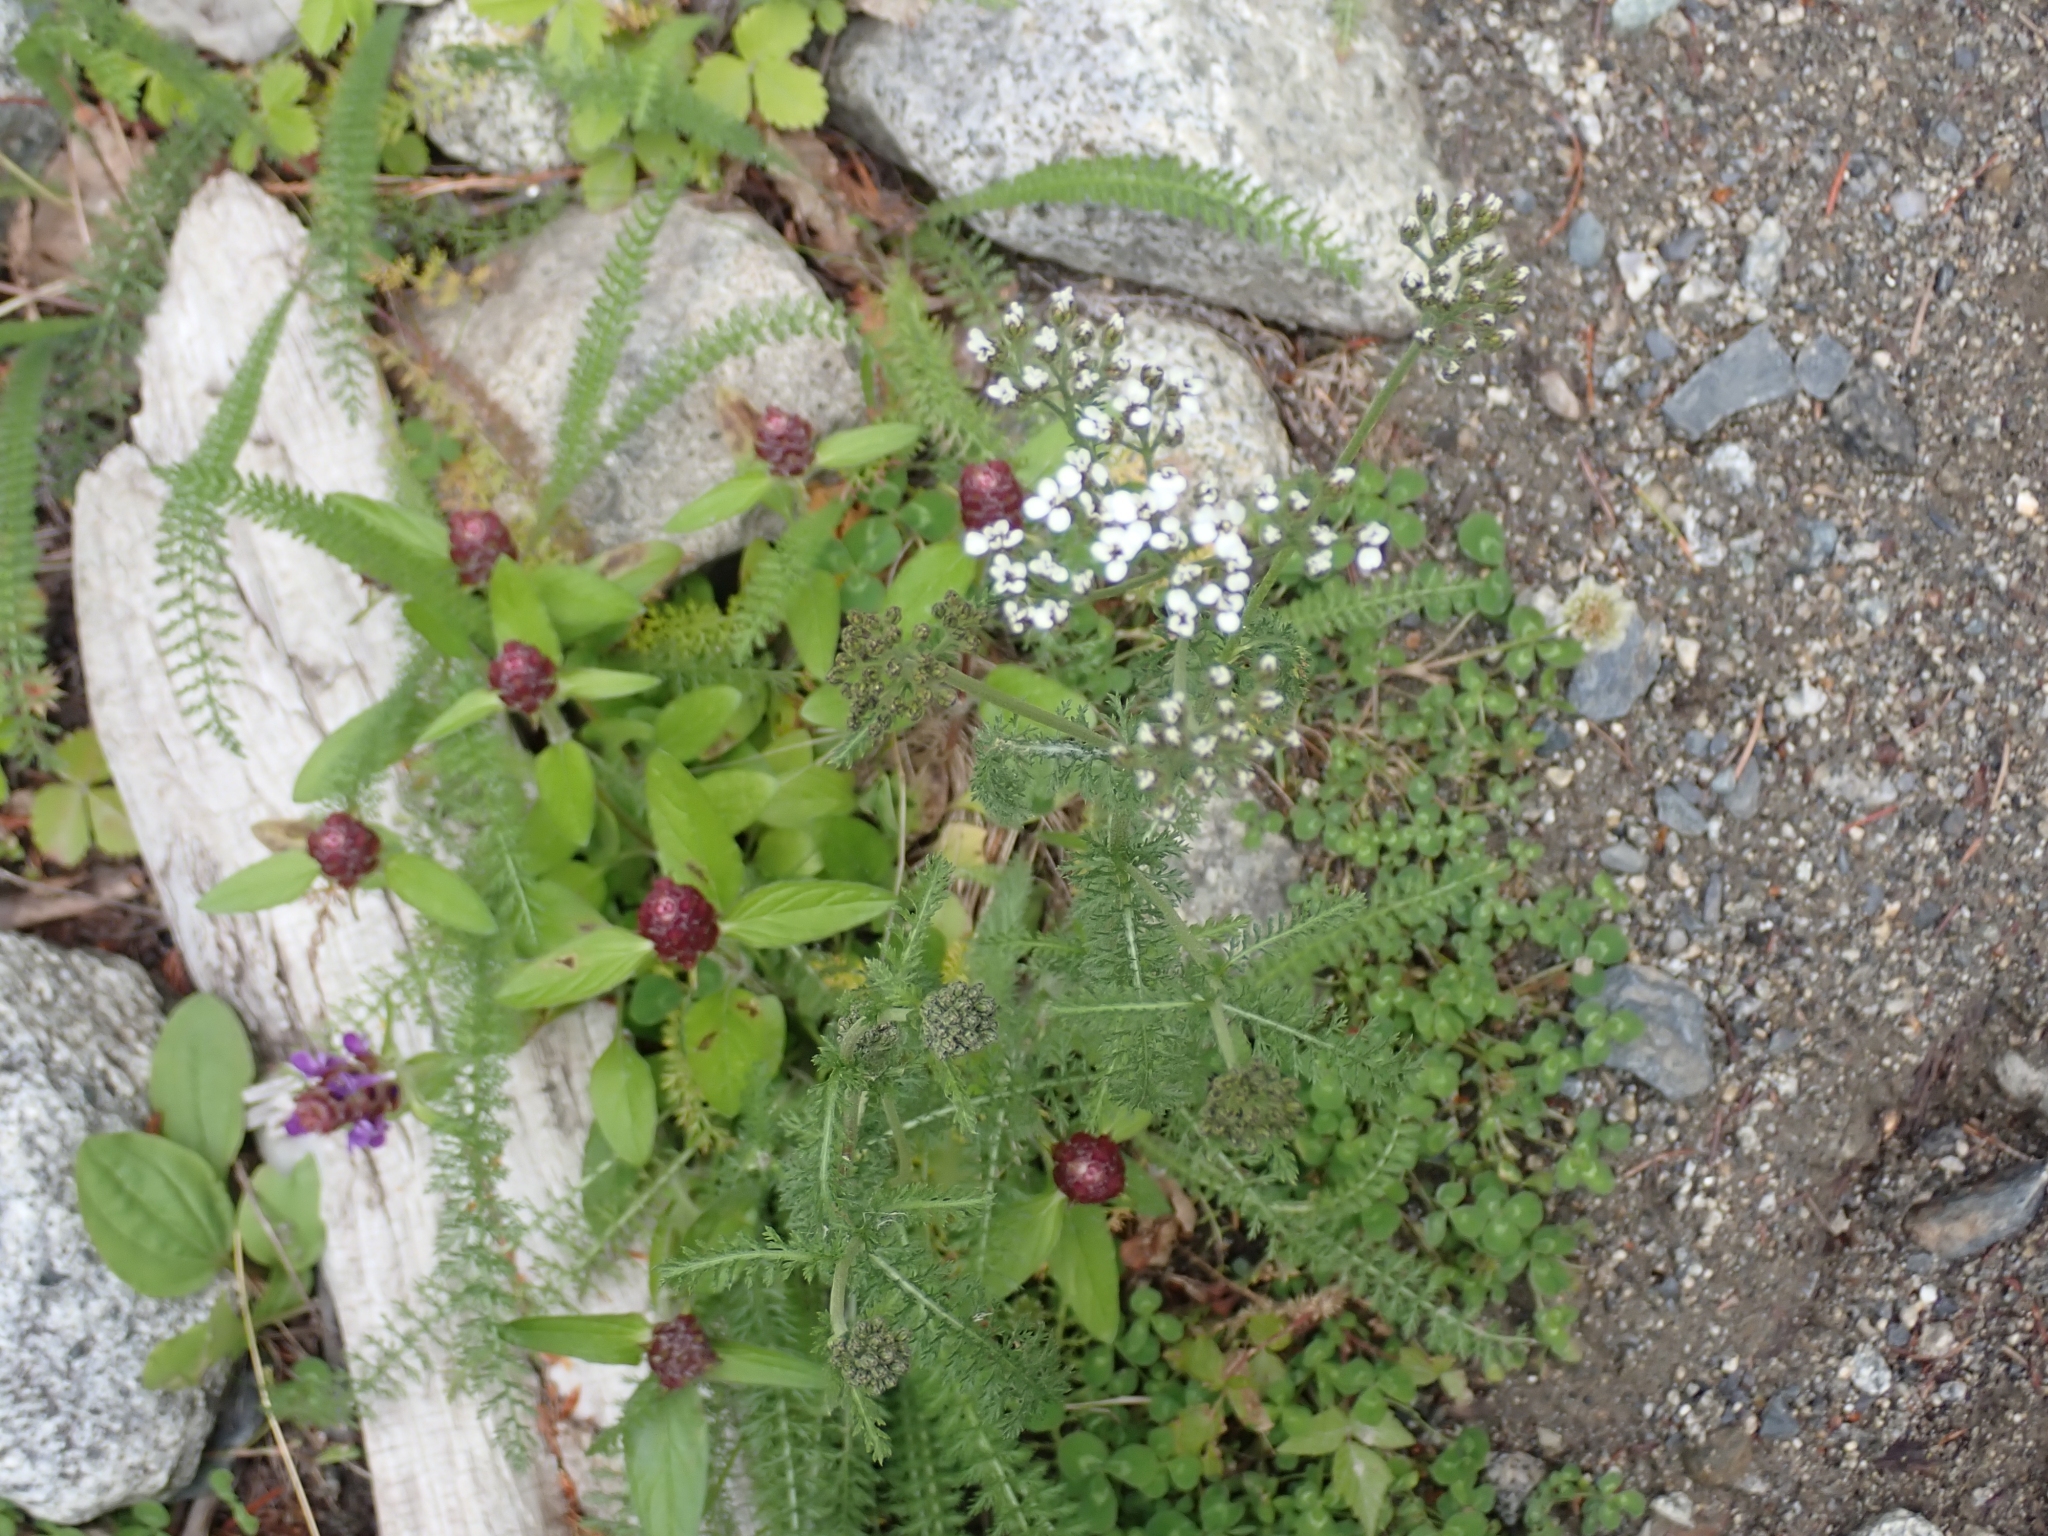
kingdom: Plantae
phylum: Tracheophyta
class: Magnoliopsida
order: Asterales
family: Asteraceae
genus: Achillea
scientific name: Achillea millefolium
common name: Yarrow
